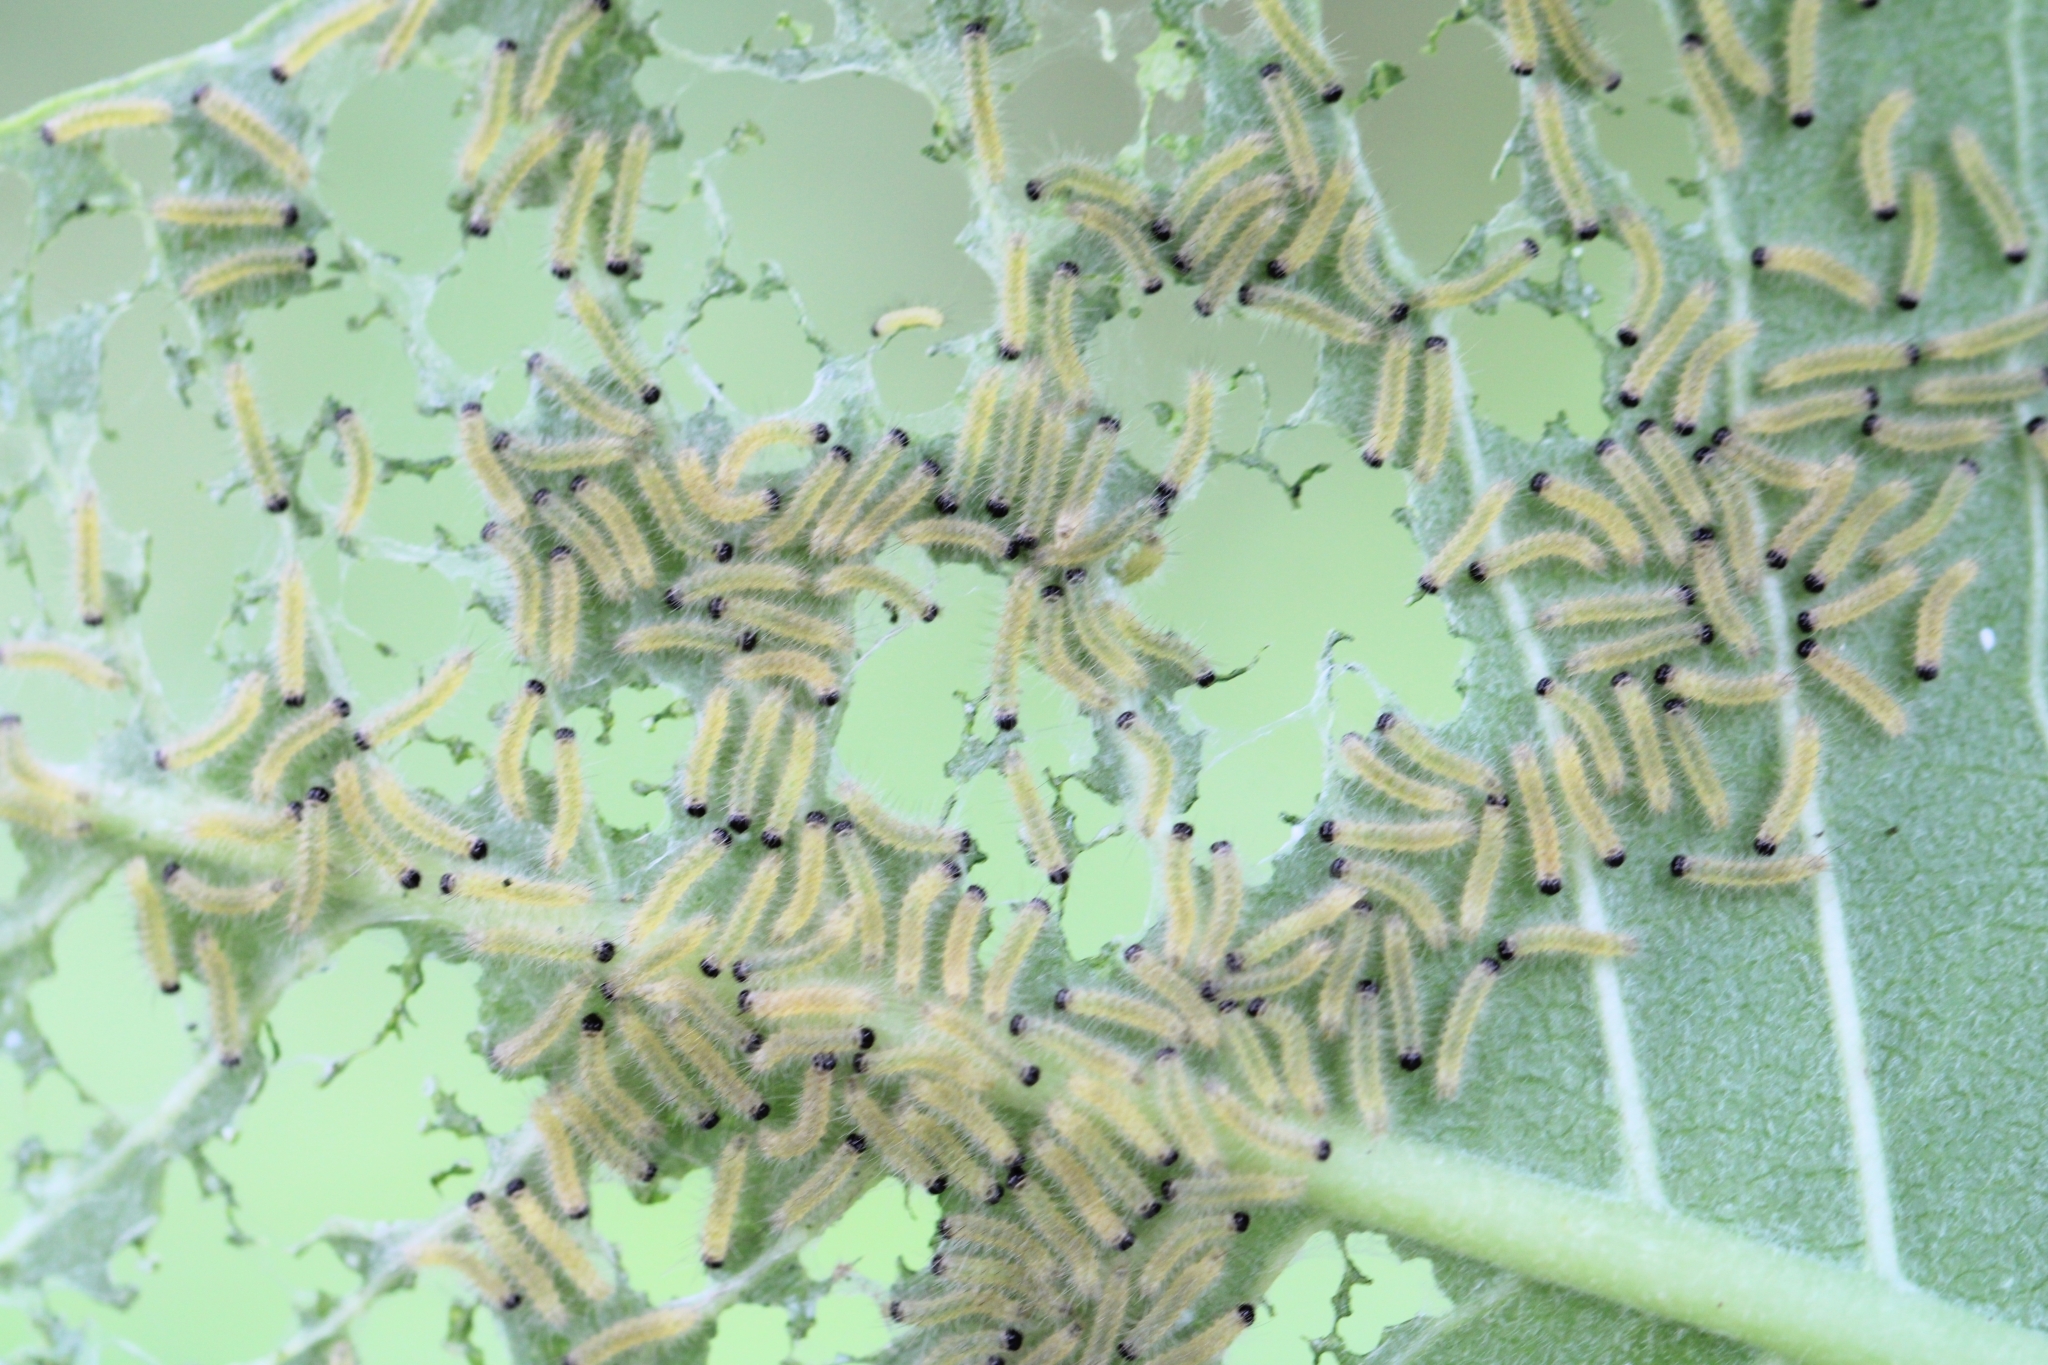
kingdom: Animalia
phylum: Arthropoda
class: Insecta
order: Lepidoptera
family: Erebidae
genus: Euchaetes
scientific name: Euchaetes egle
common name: Milkweed tussock moth
